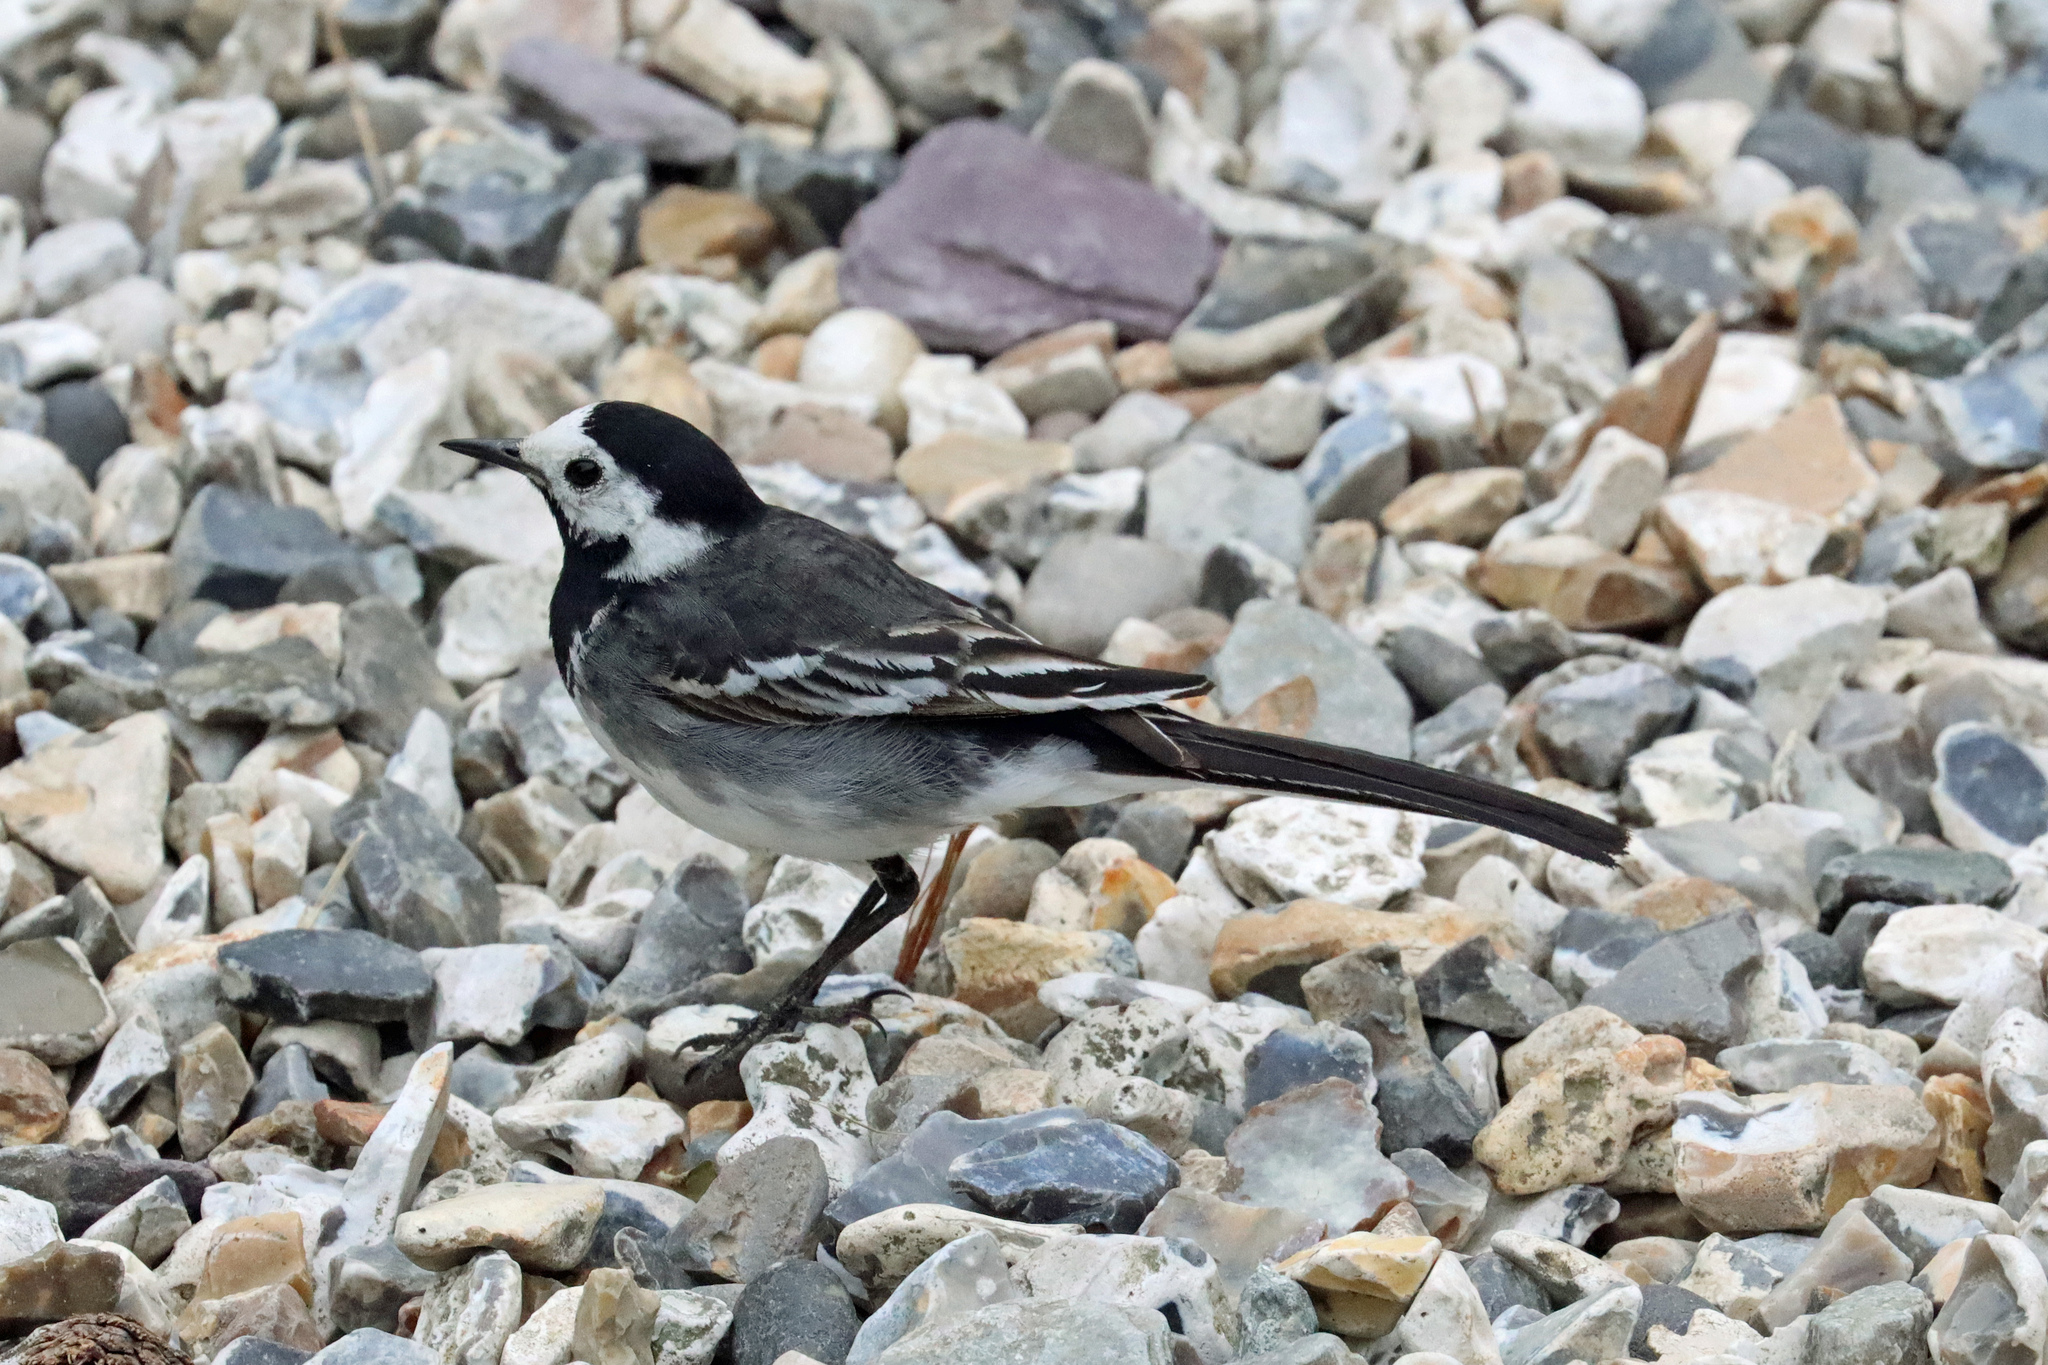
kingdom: Animalia
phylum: Chordata
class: Aves
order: Passeriformes
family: Motacillidae
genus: Motacilla
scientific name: Motacilla alba
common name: White wagtail
